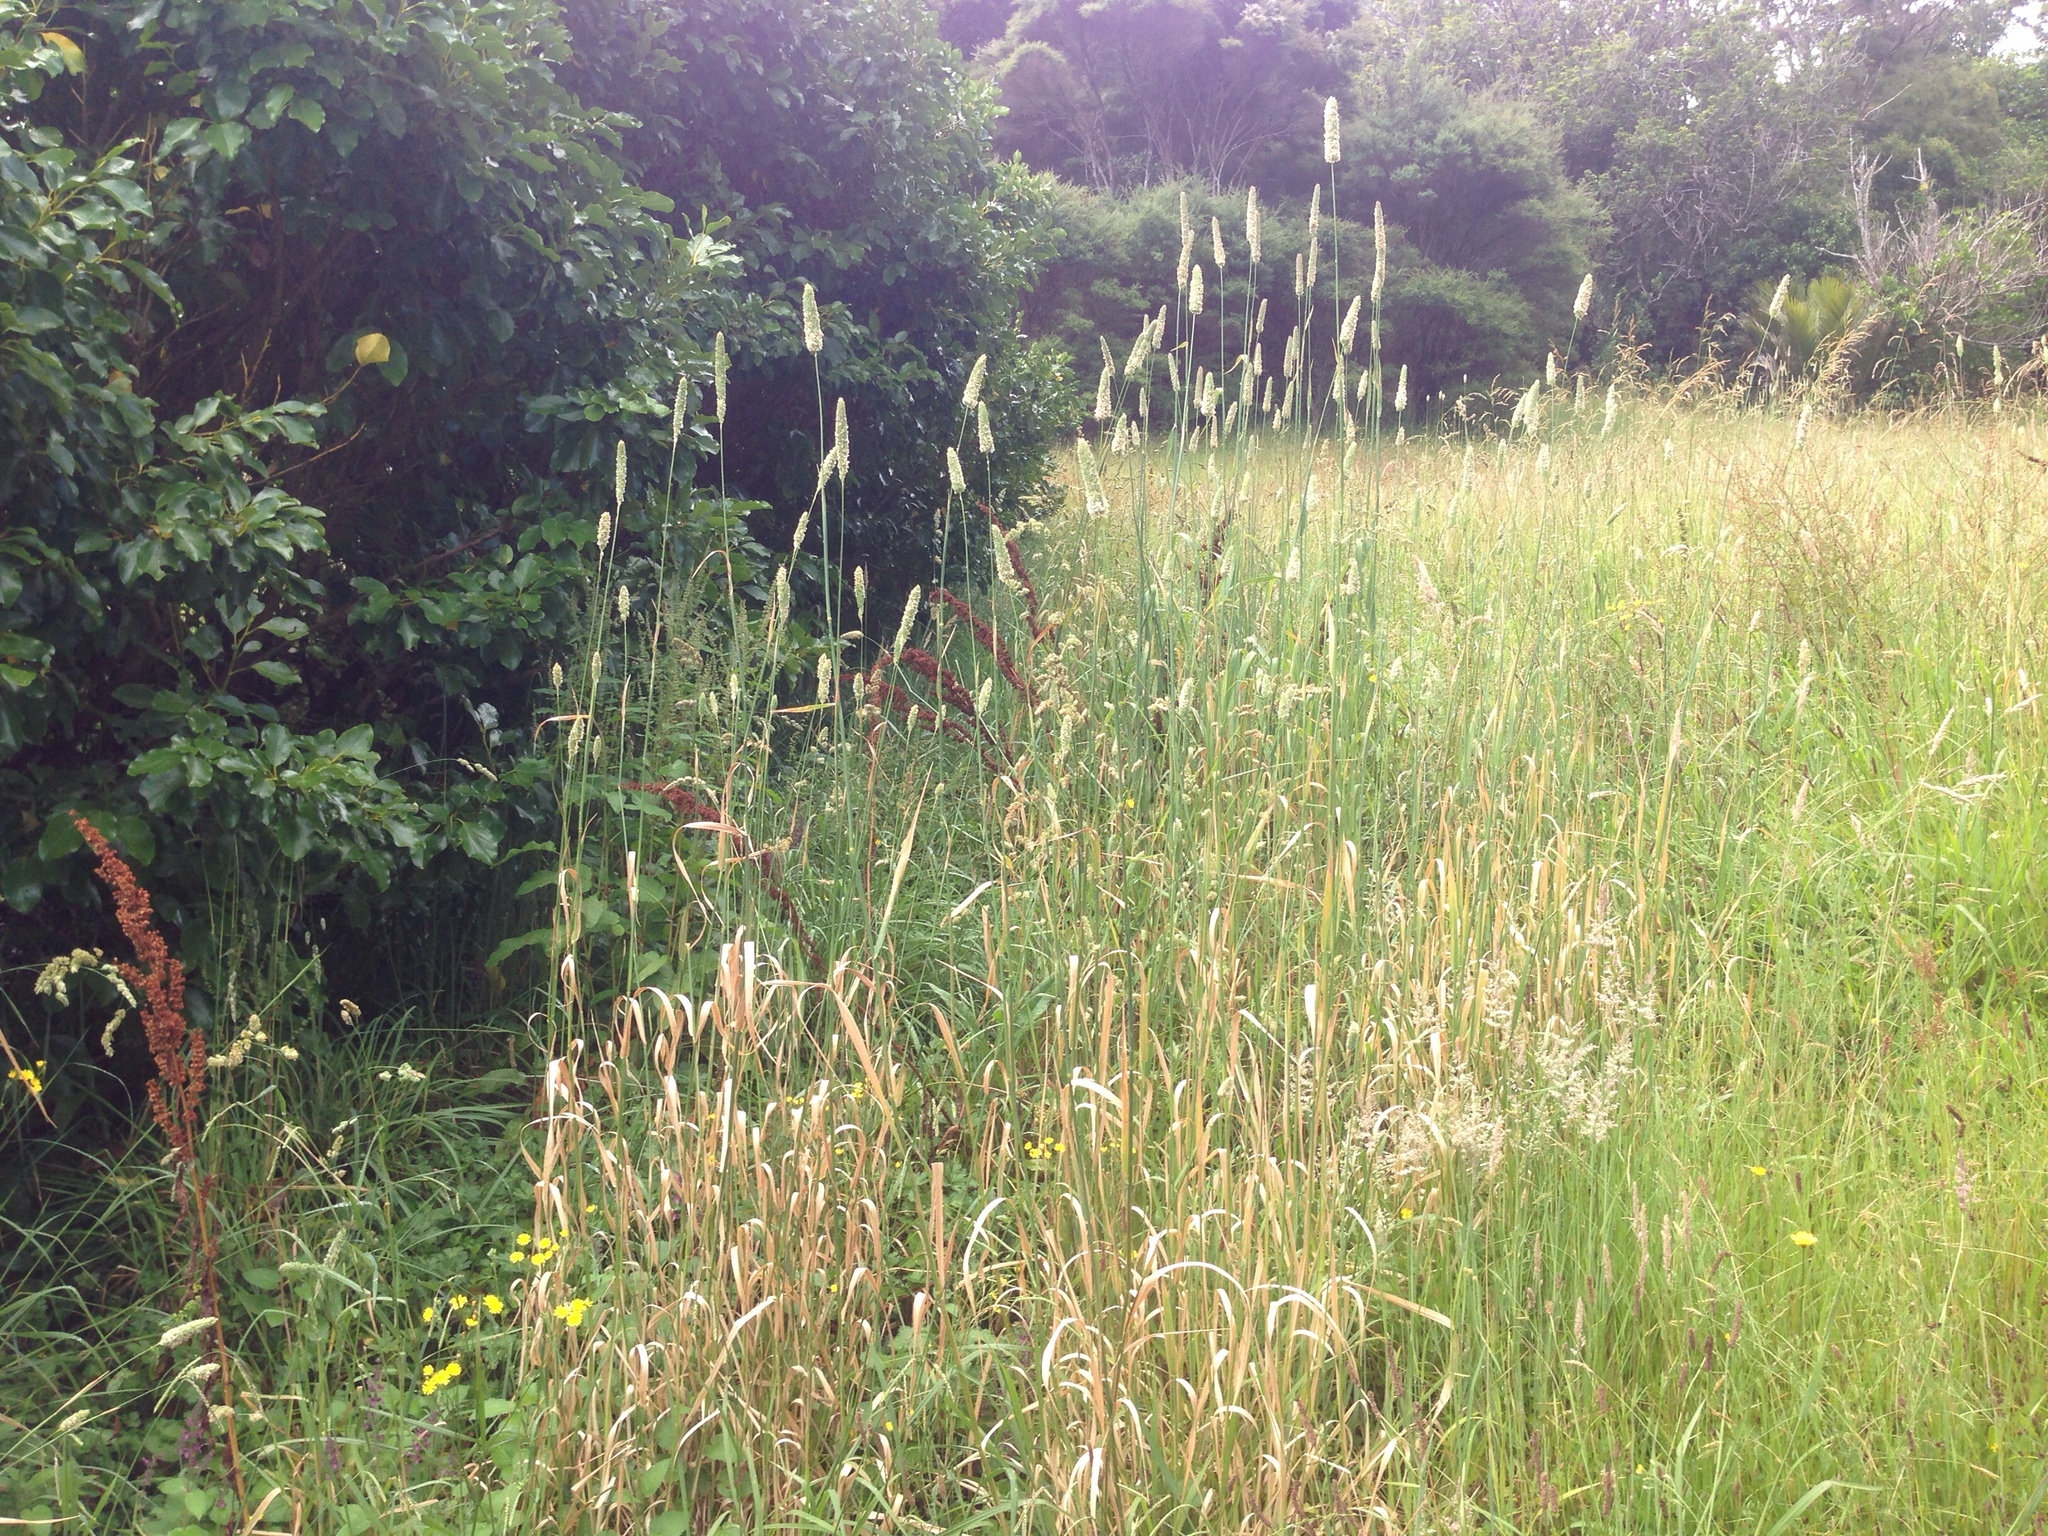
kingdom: Plantae
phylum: Tracheophyta
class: Liliopsida
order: Poales
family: Poaceae
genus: Phalaris
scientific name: Phalaris aquatica
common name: Bulbous canary-grass
